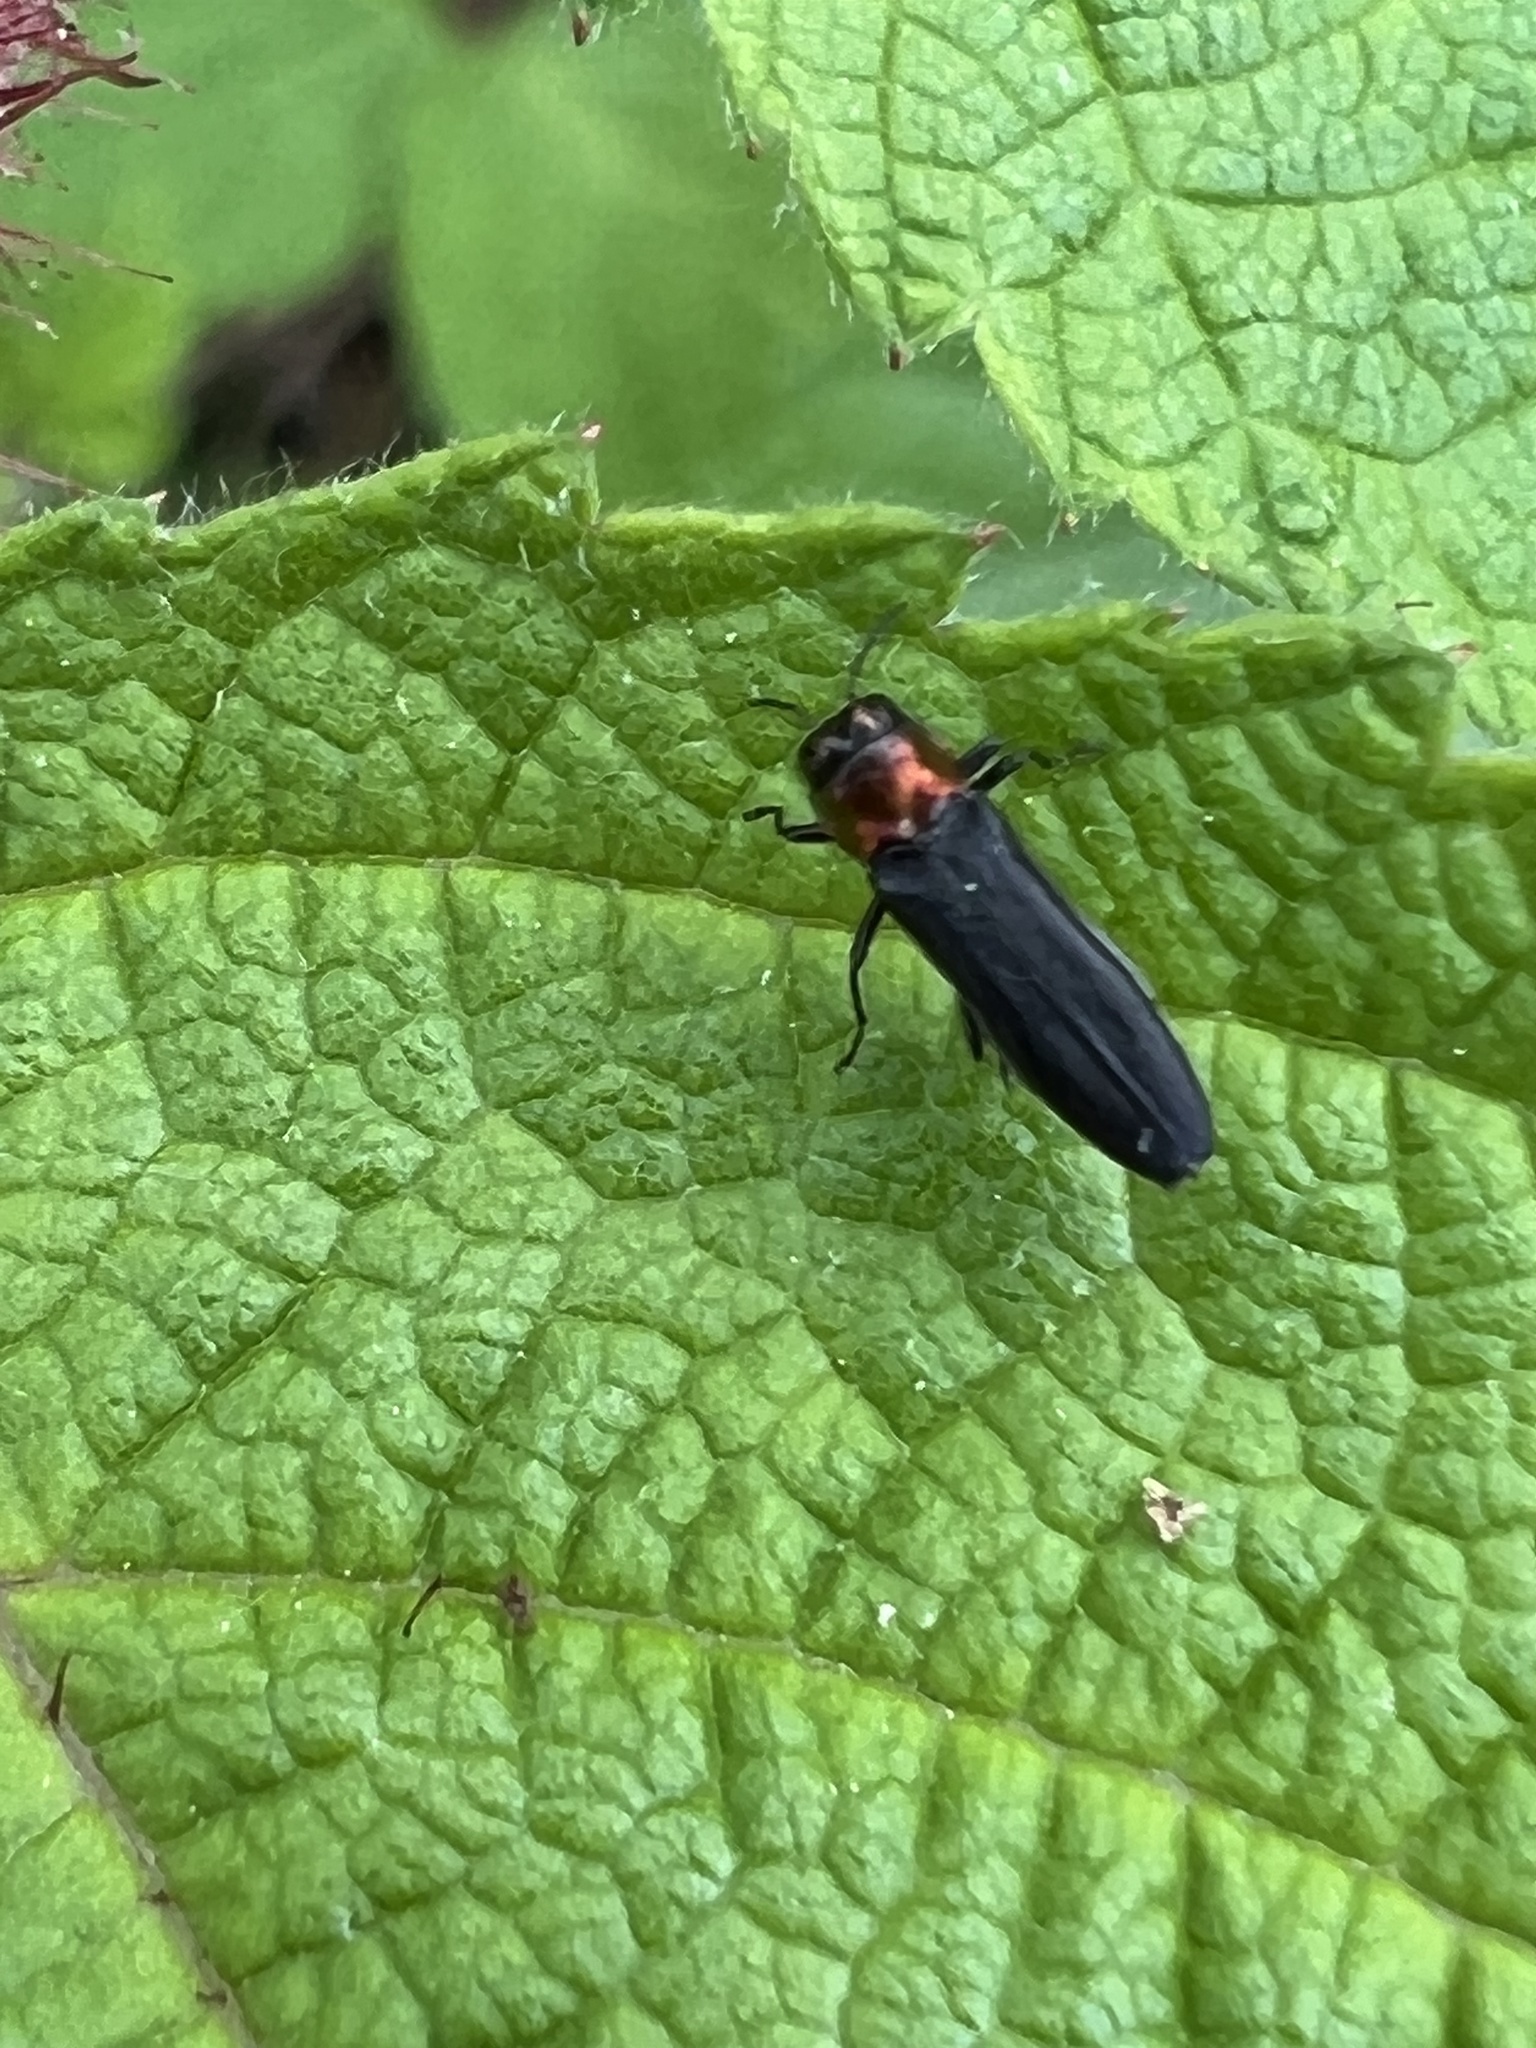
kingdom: Animalia
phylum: Arthropoda
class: Insecta
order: Coleoptera
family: Buprestidae
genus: Agrilus
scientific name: Agrilus ruficollis
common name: Red-necked cane borer beetle
